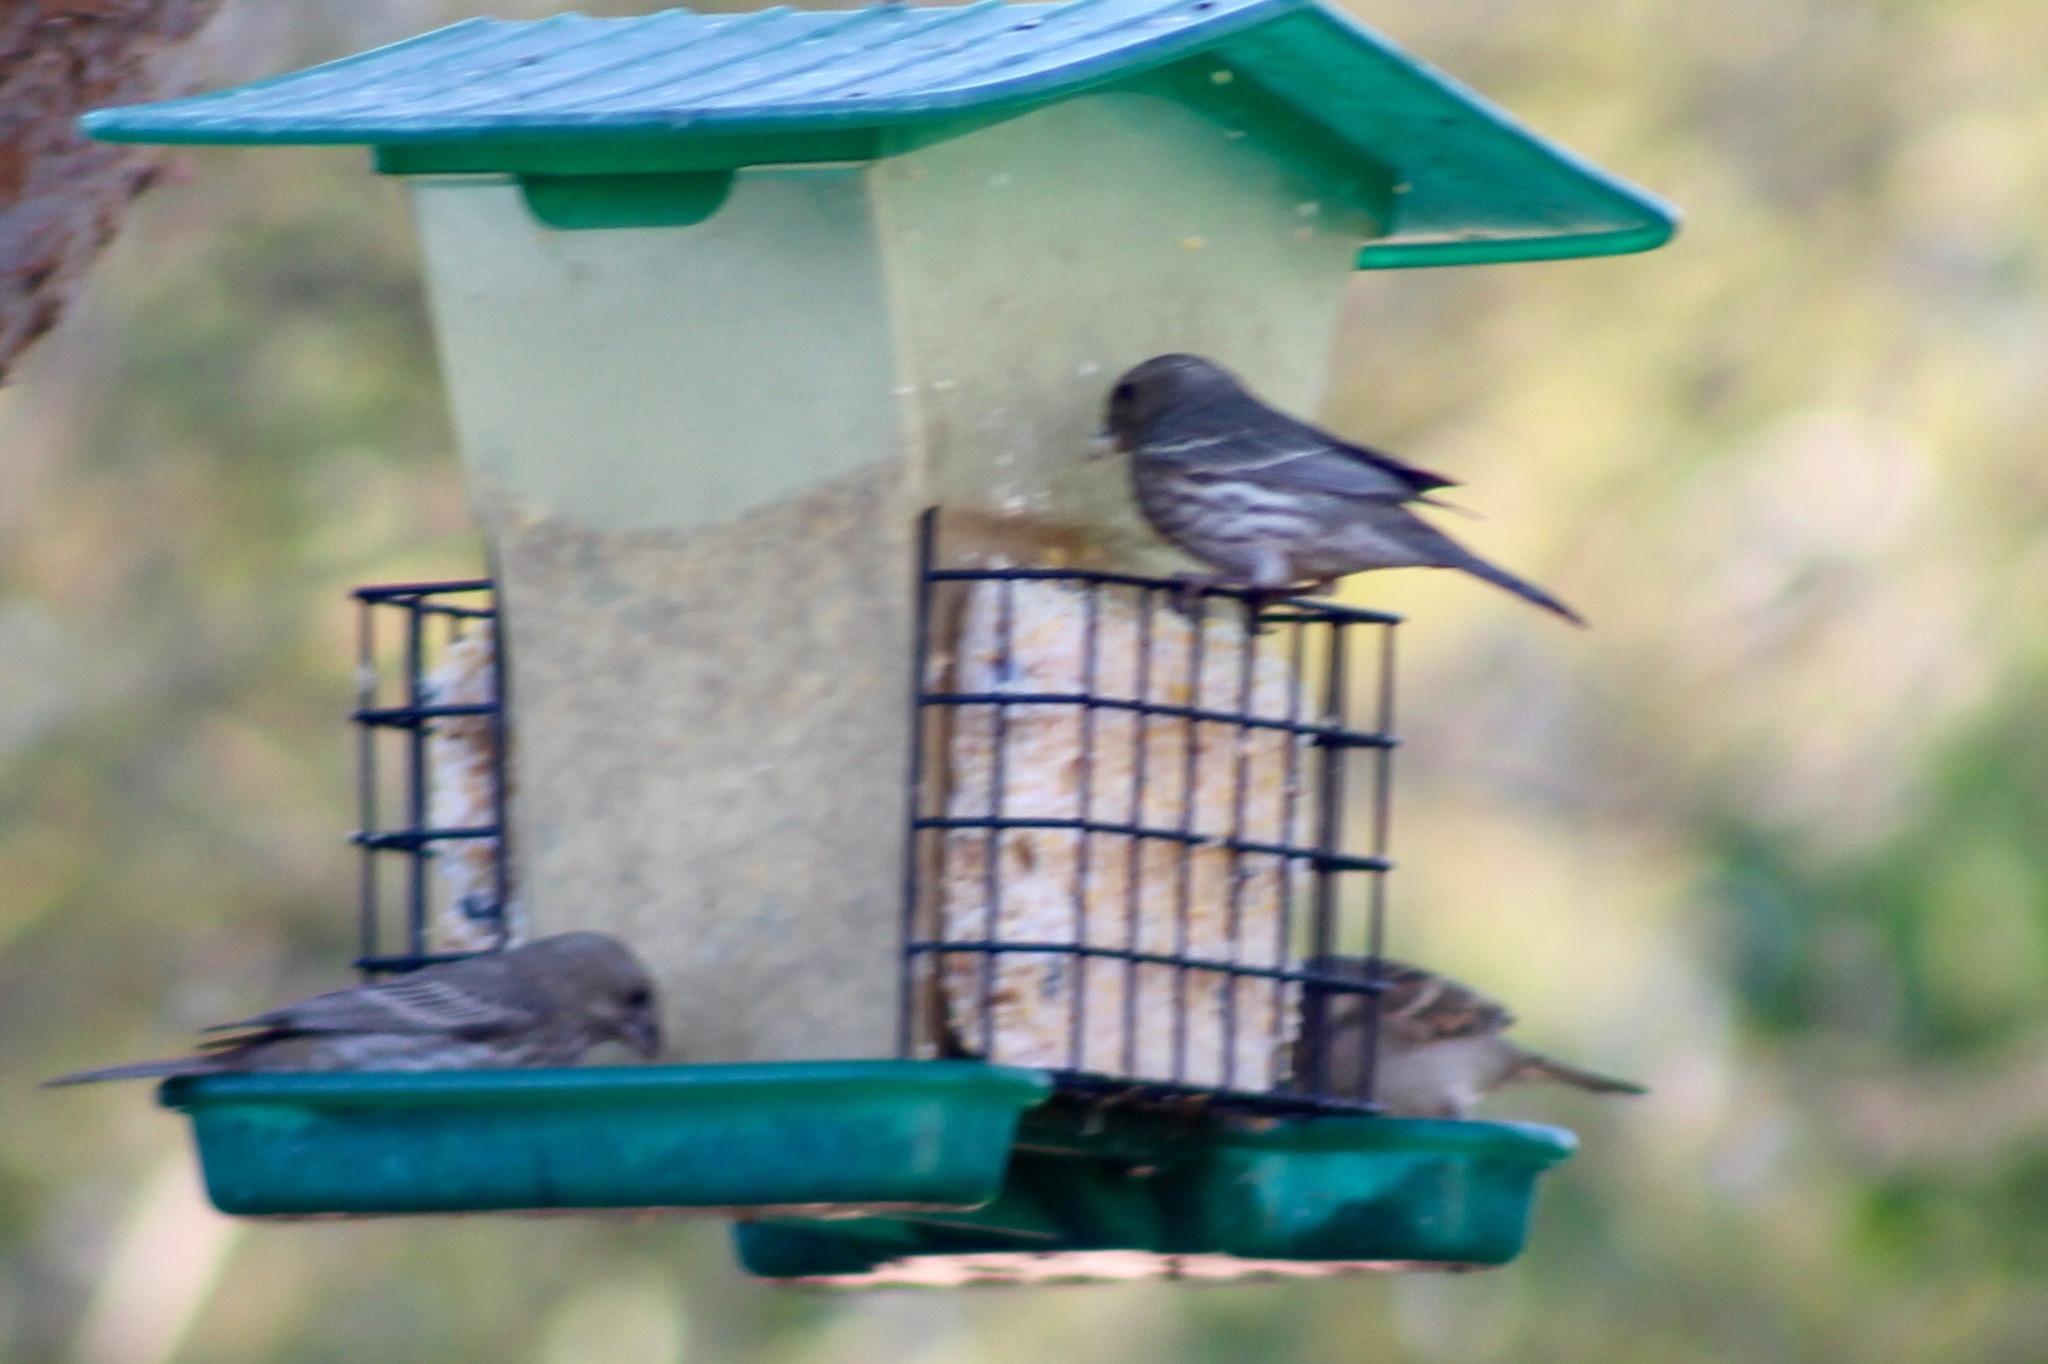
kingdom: Animalia
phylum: Chordata
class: Aves
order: Passeriformes
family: Fringillidae
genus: Haemorhous
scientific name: Haemorhous mexicanus
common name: House finch
